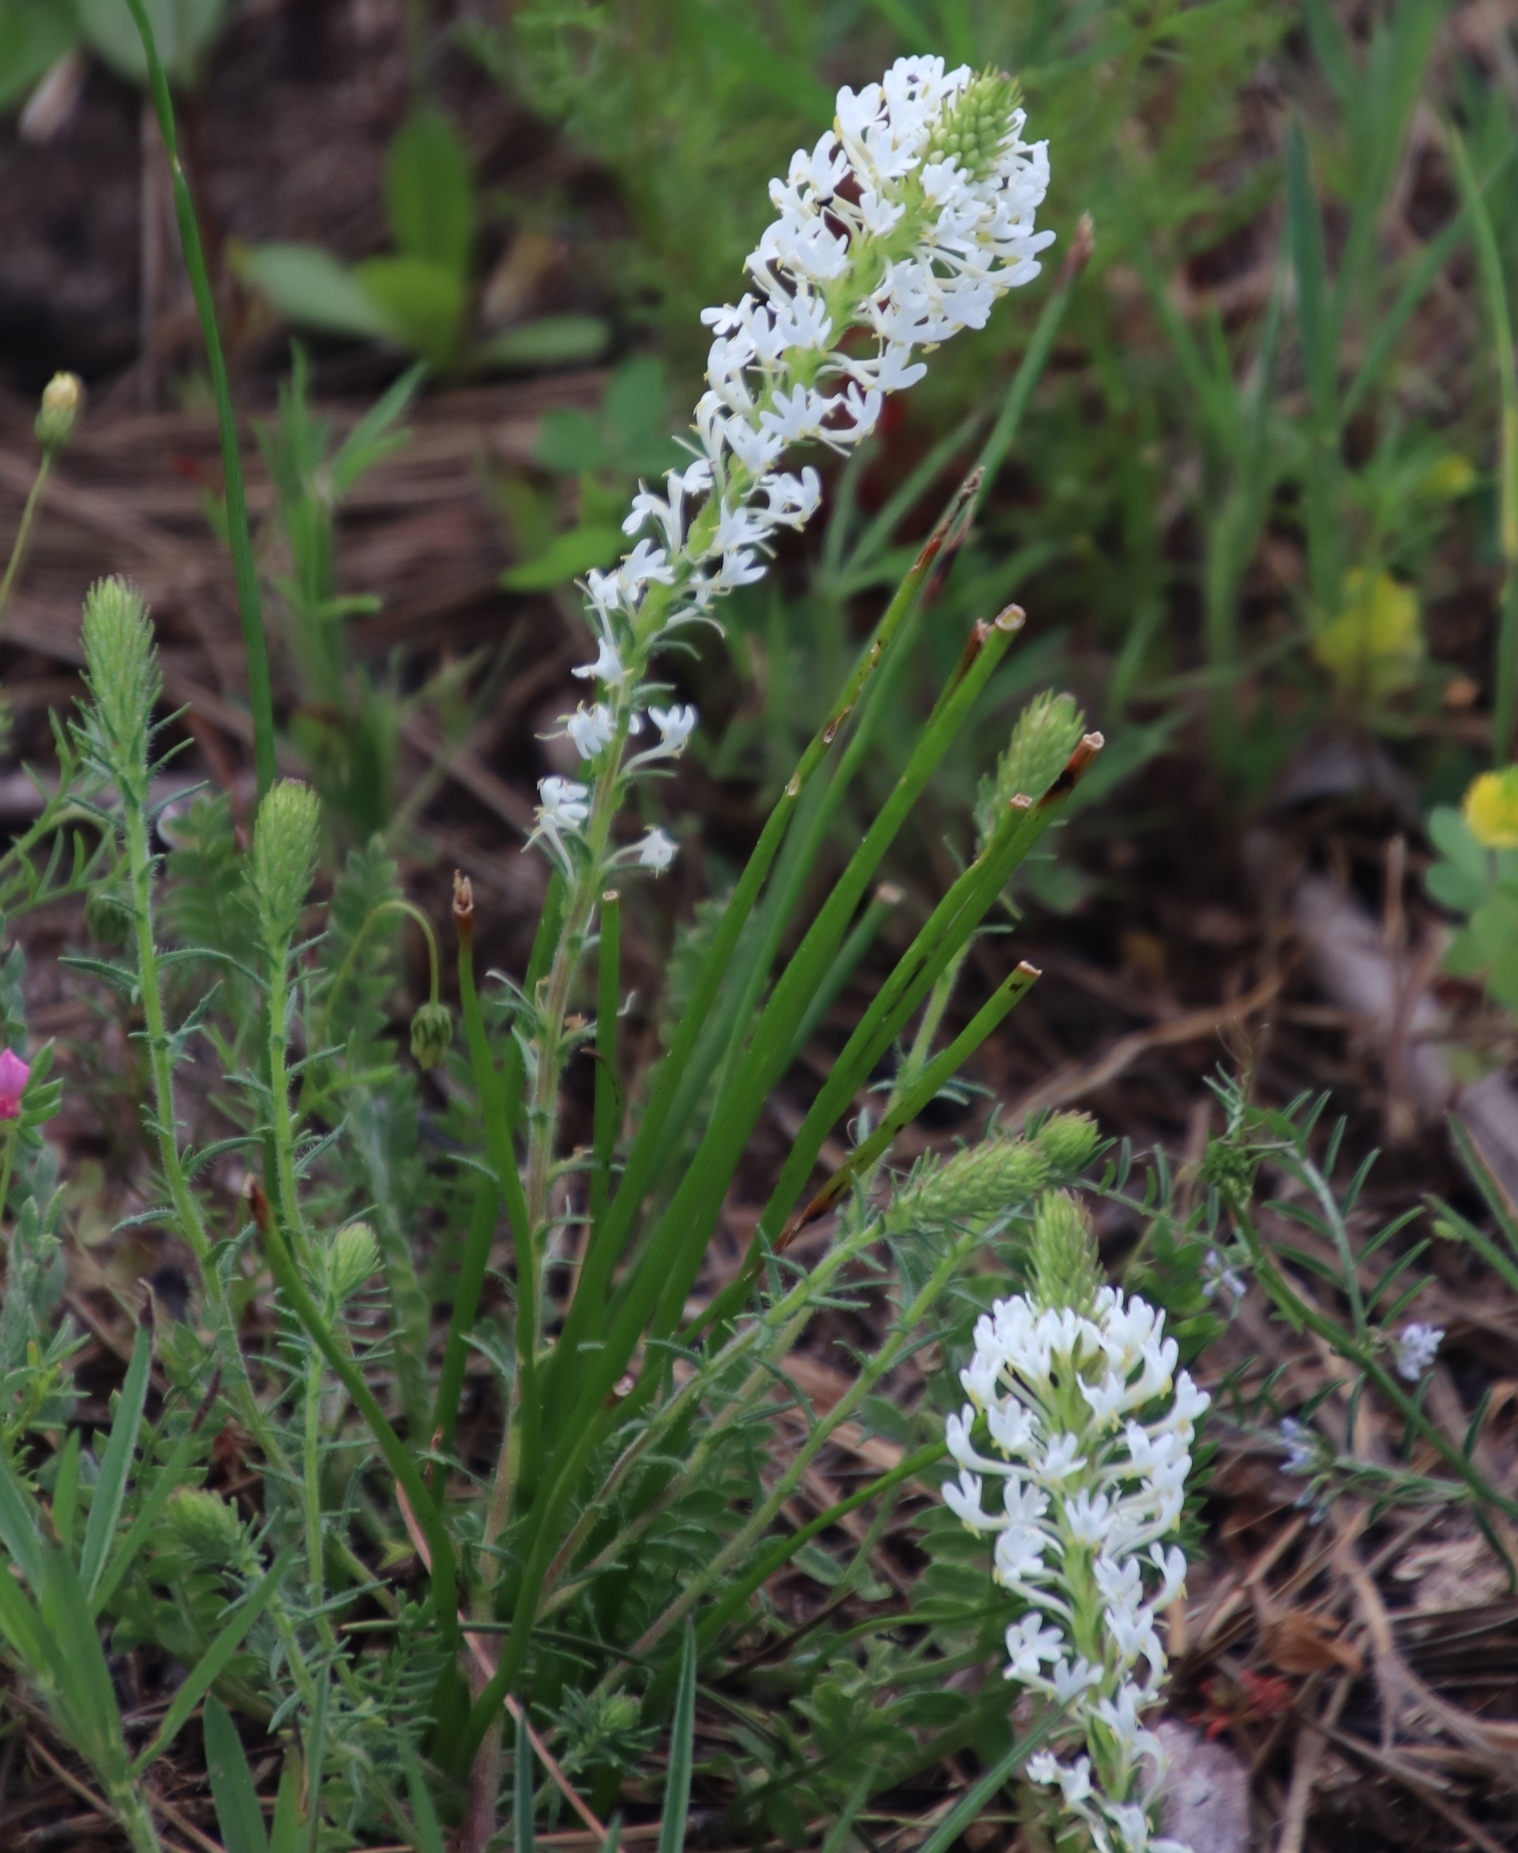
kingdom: Plantae
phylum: Tracheophyta
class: Magnoliopsida
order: Lamiales
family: Scrophulariaceae
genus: Dischisma
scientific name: Dischisma ciliatum
